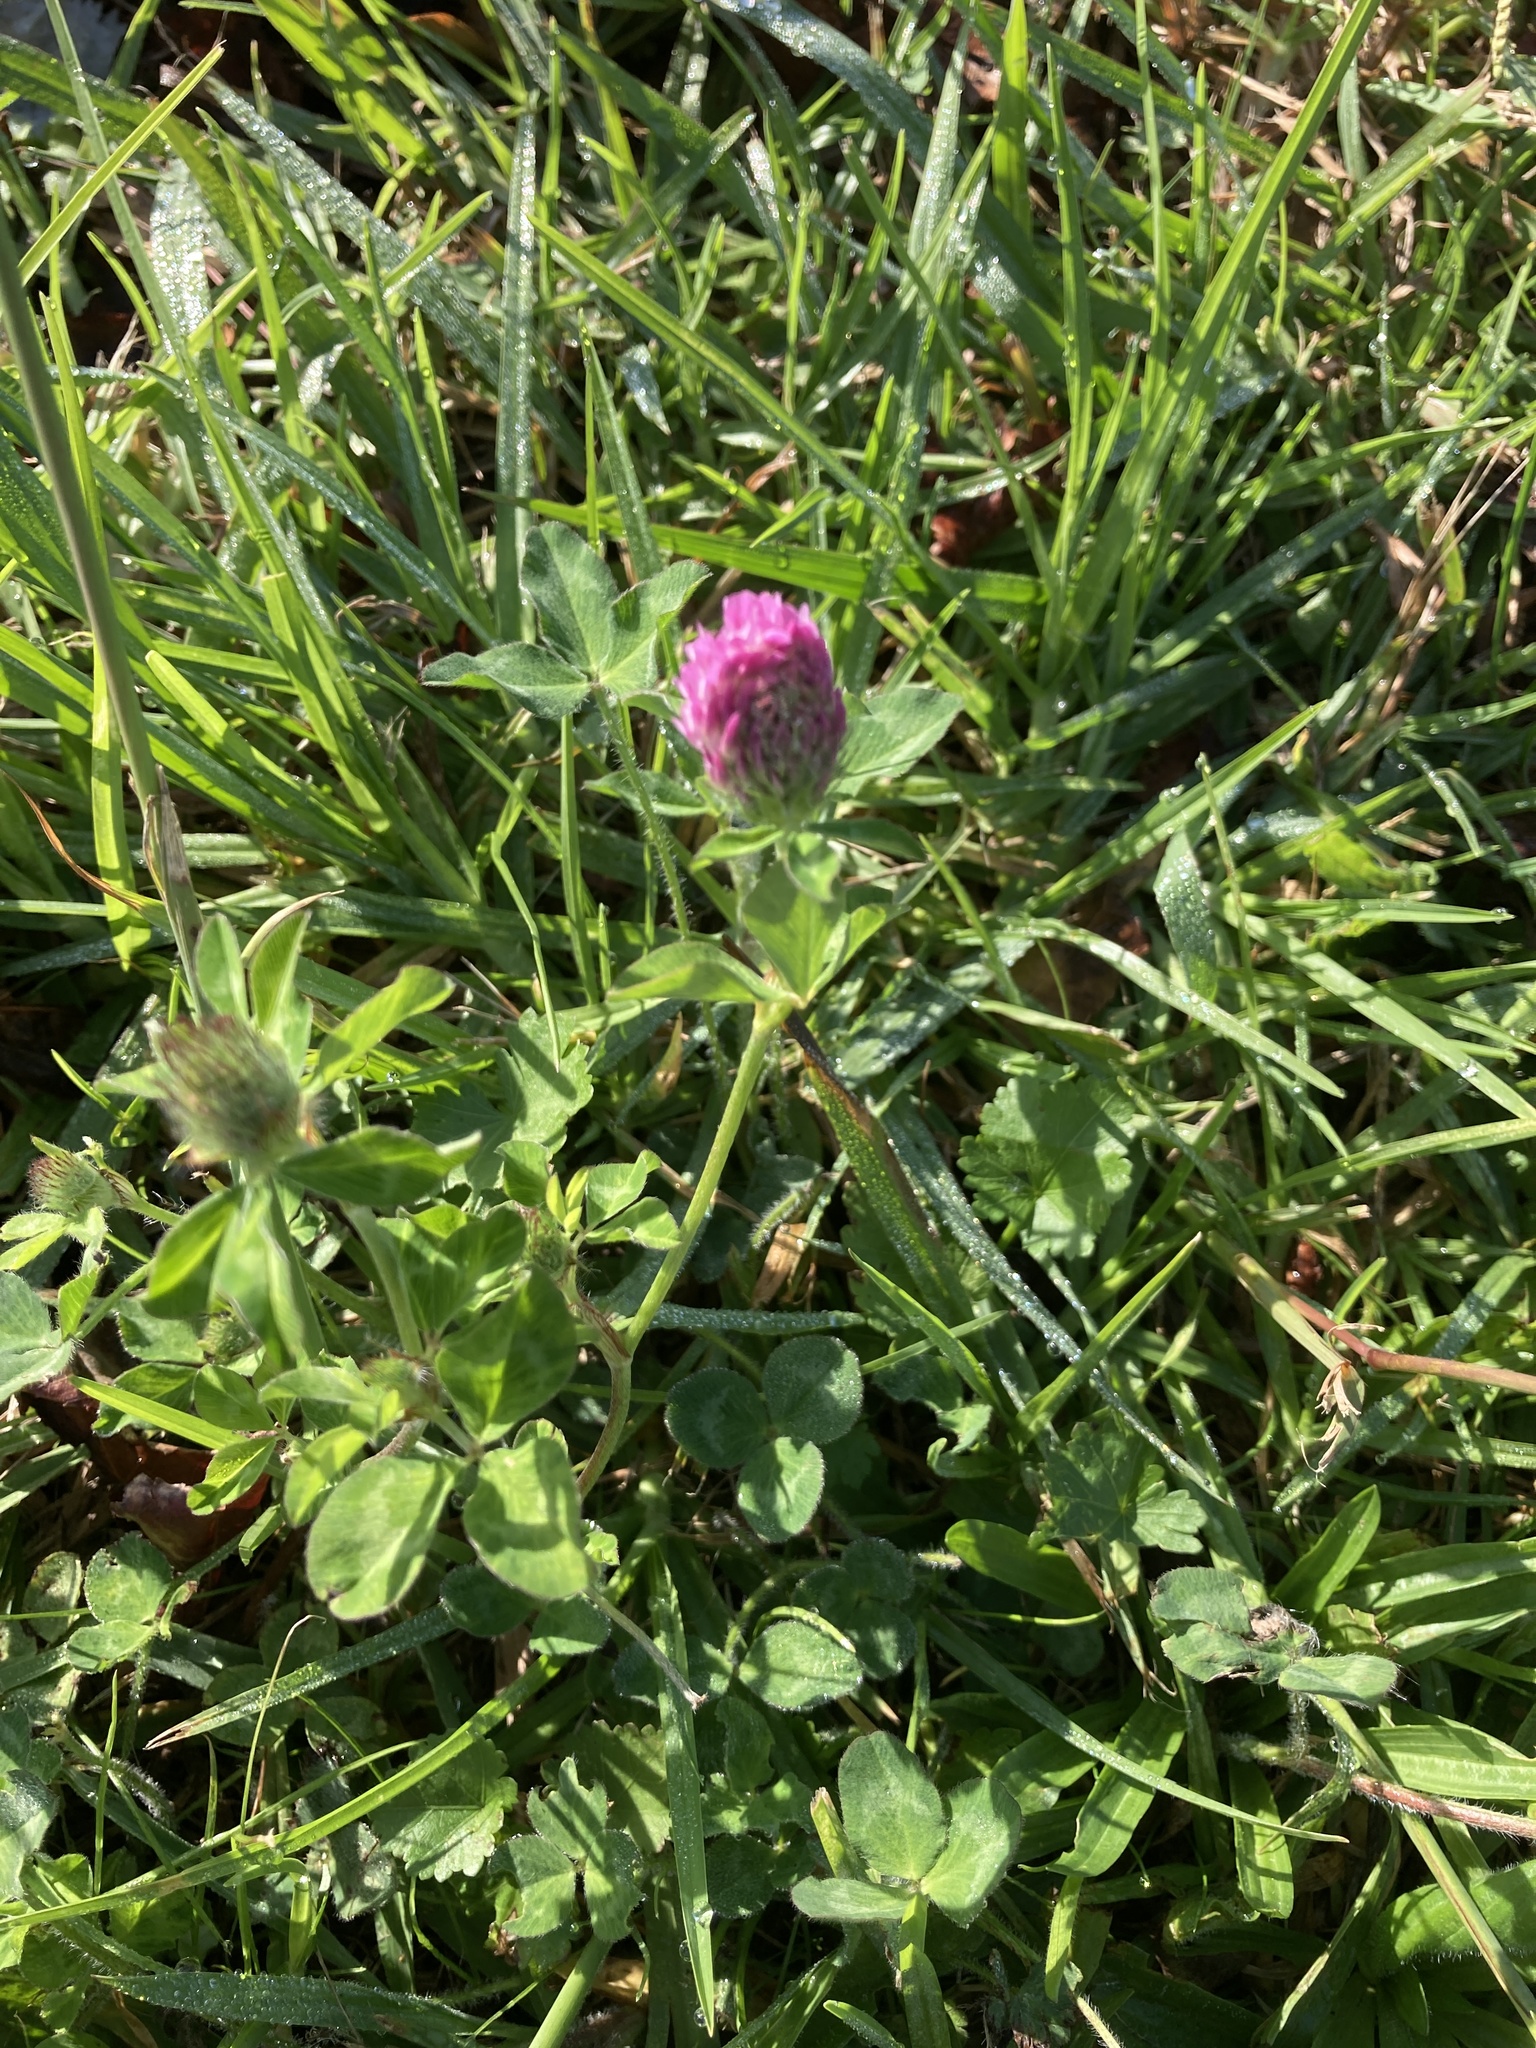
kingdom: Plantae
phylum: Tracheophyta
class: Magnoliopsida
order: Fabales
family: Fabaceae
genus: Trifolium
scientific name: Trifolium pratense
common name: Red clover
